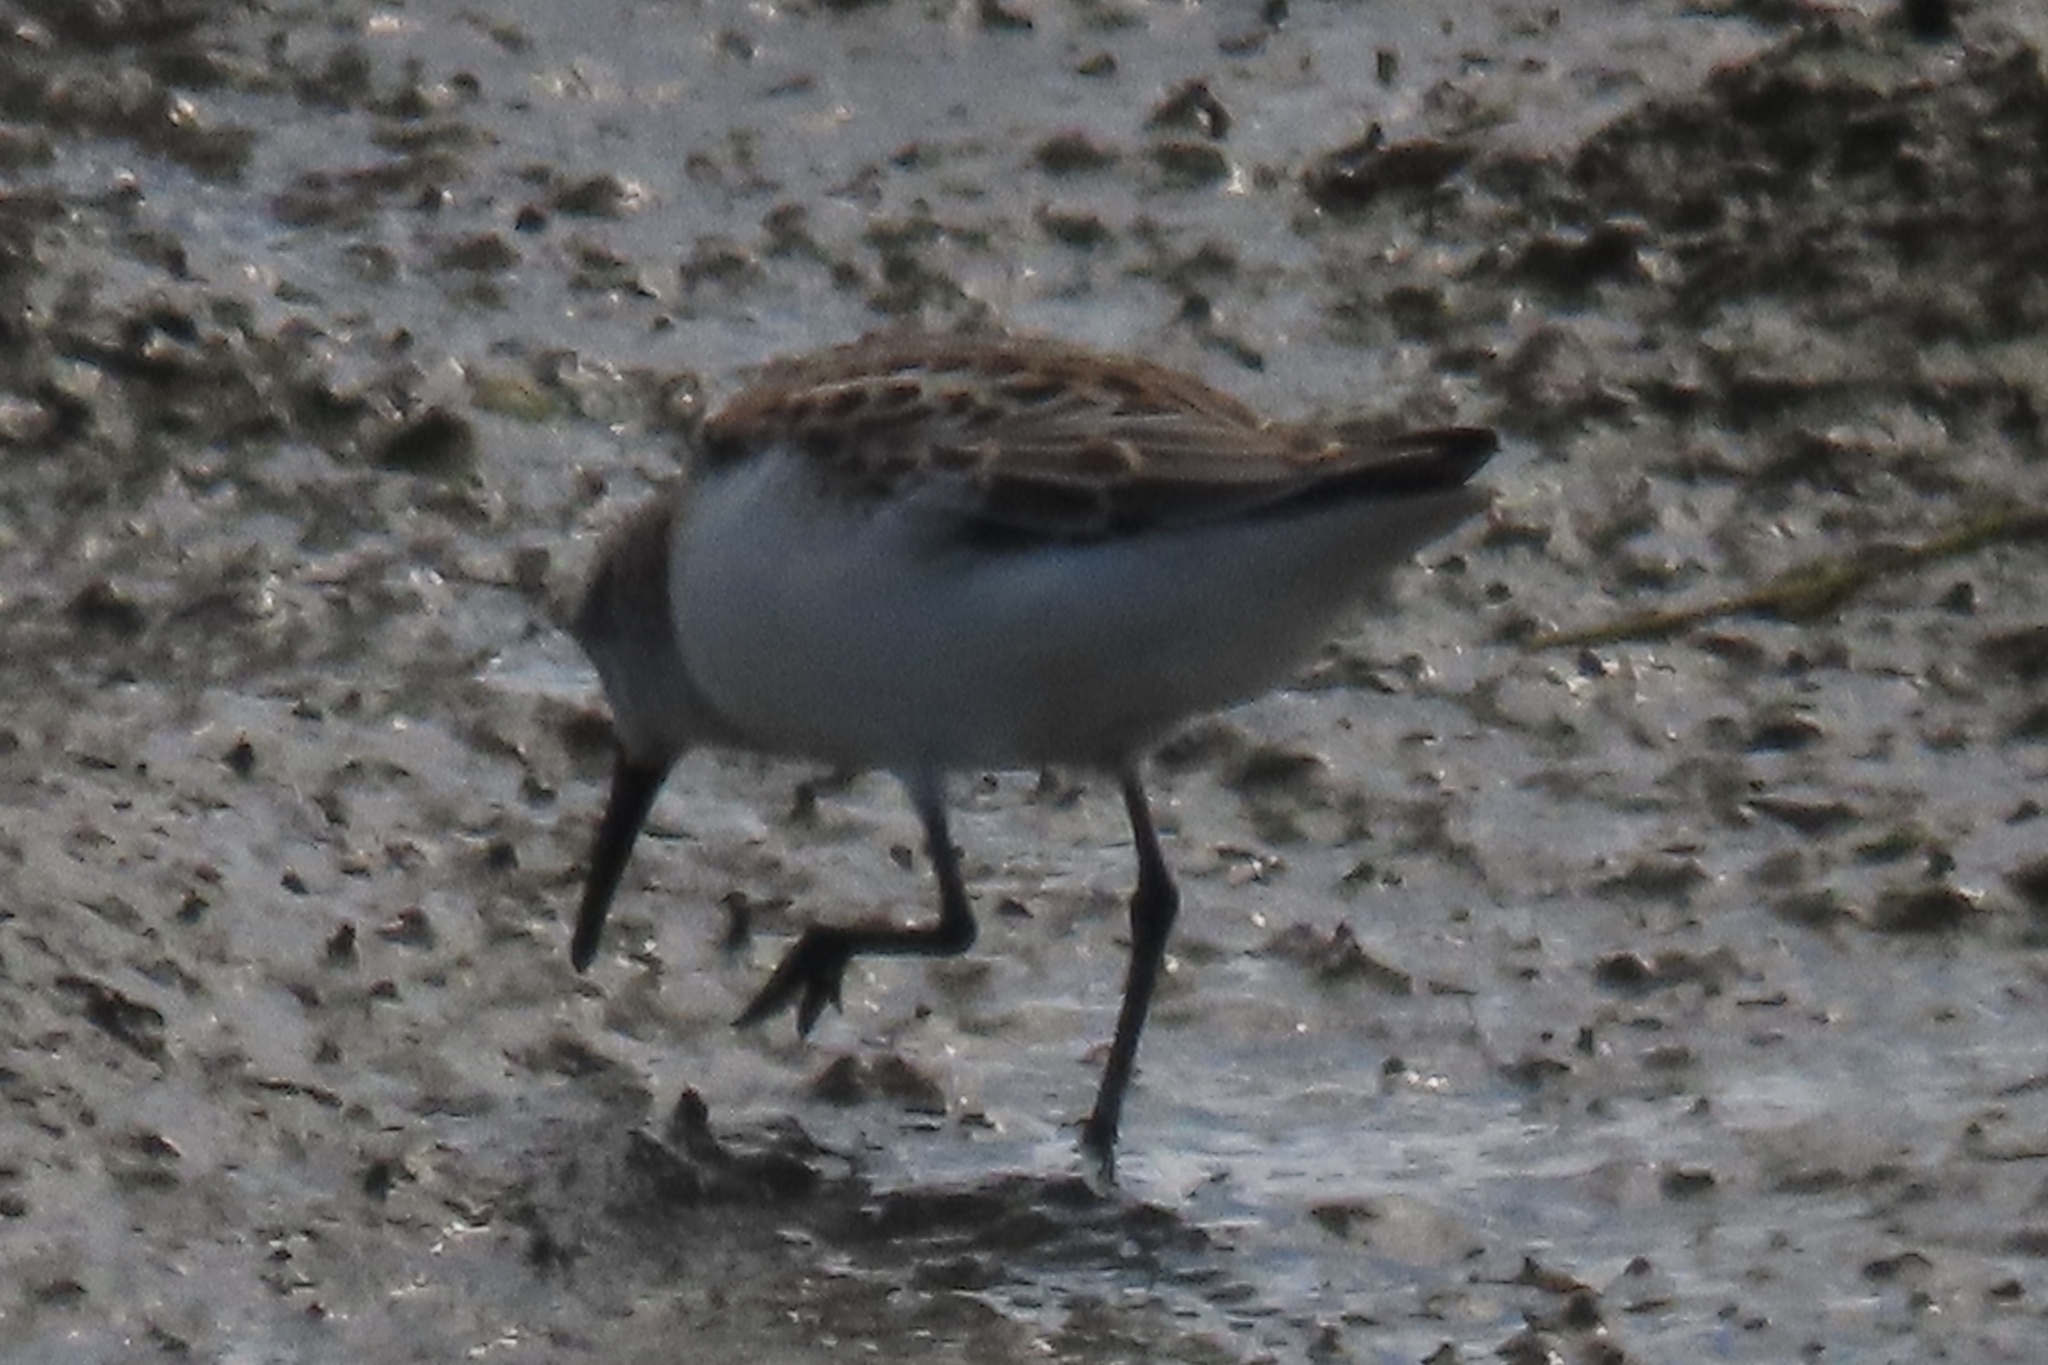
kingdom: Animalia
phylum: Chordata
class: Aves
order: Charadriiformes
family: Scolopacidae
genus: Calidris
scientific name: Calidris mauri
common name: Western sandpiper
